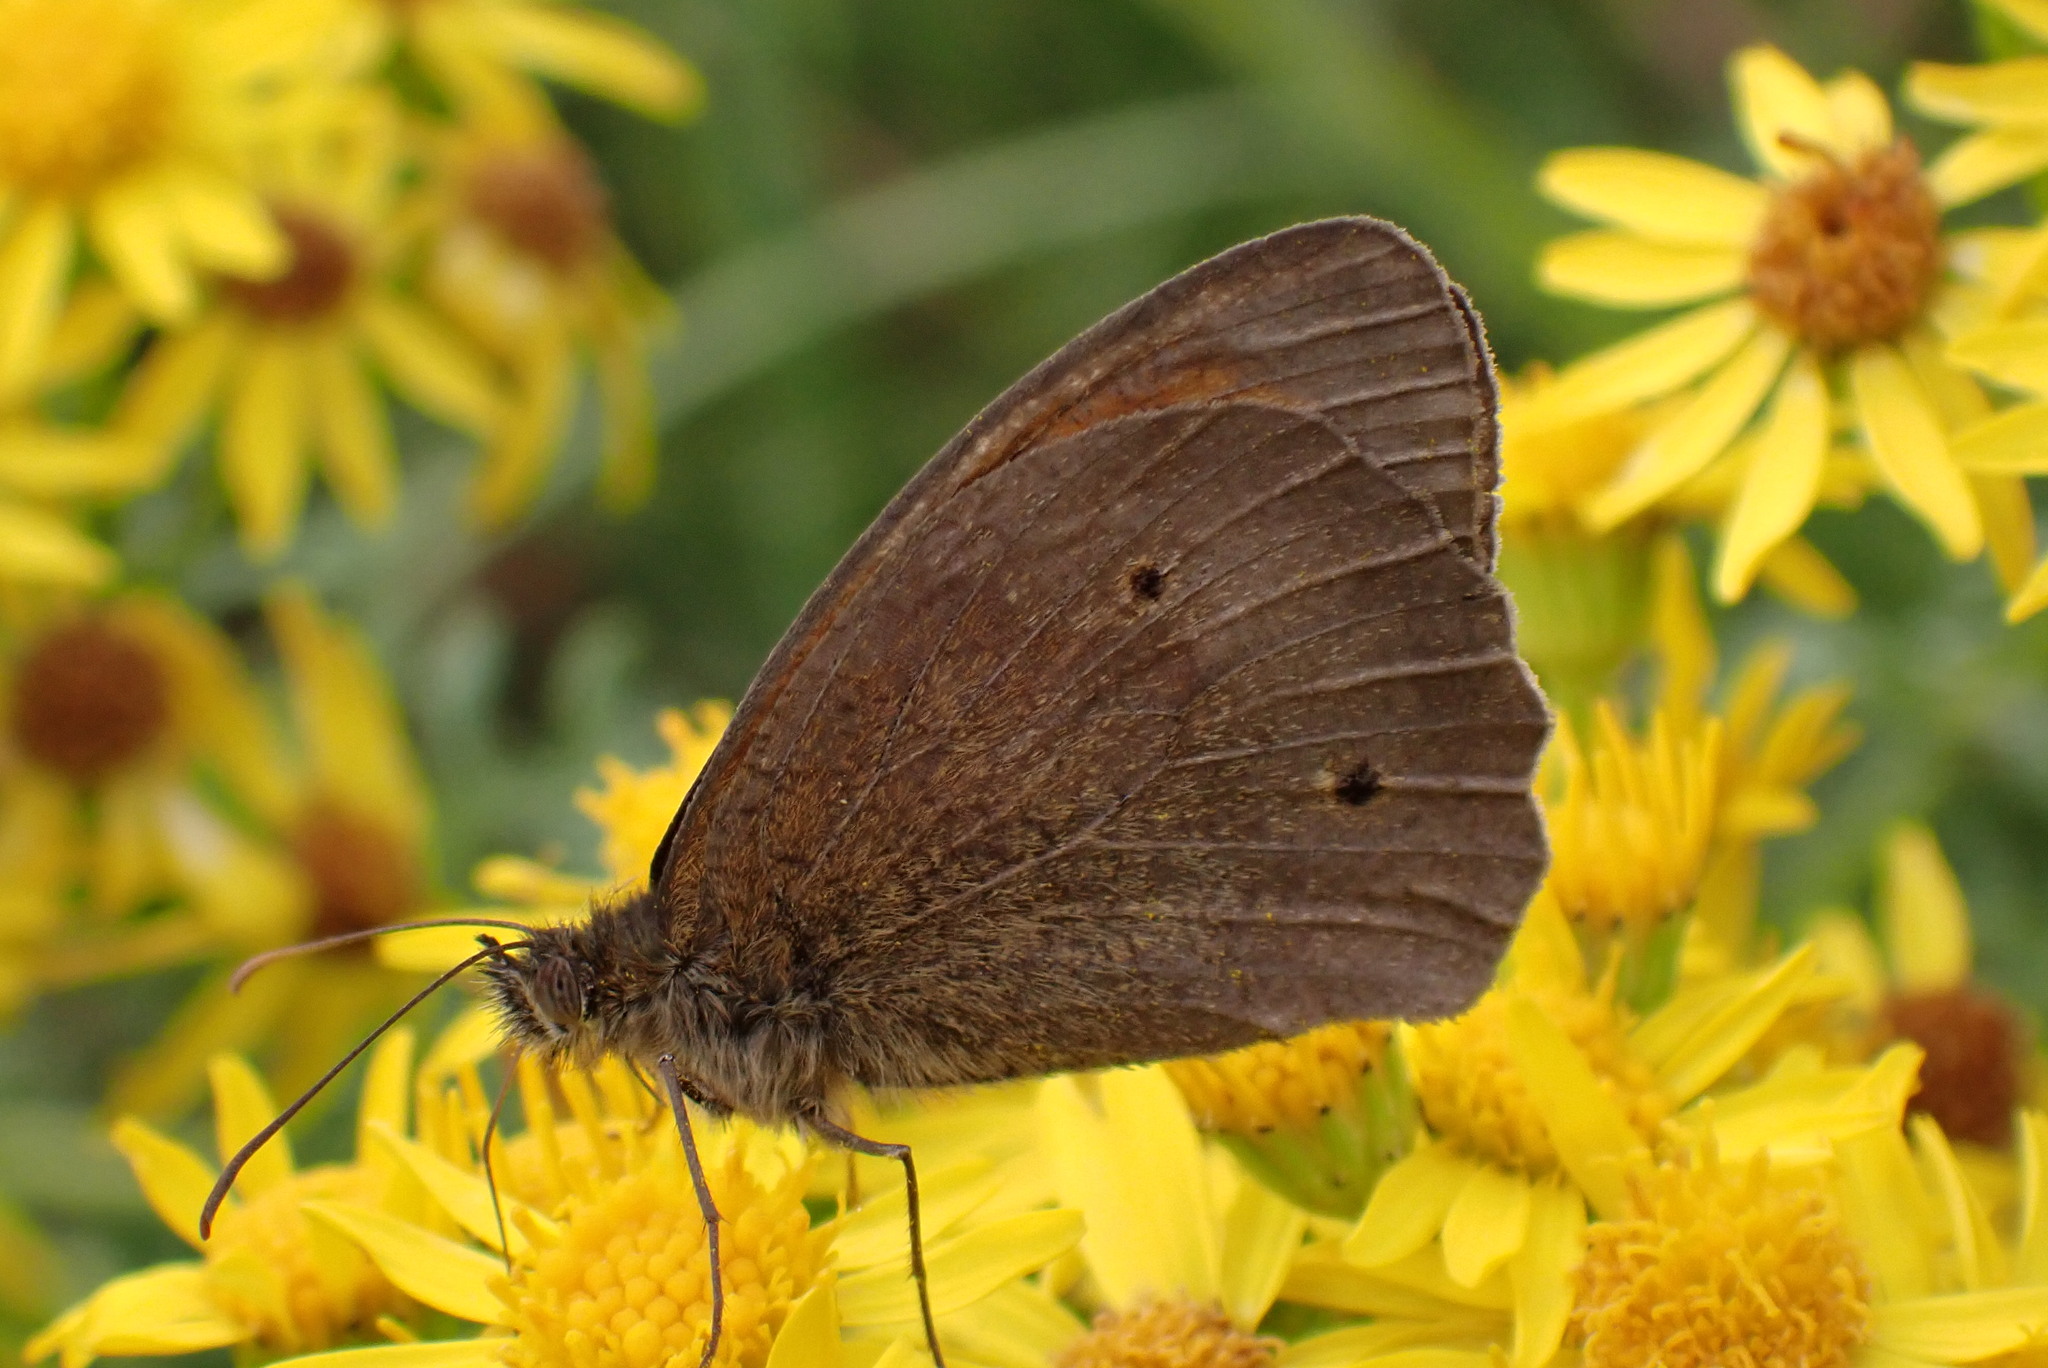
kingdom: Animalia
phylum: Arthropoda
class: Insecta
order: Lepidoptera
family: Nymphalidae
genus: Maniola
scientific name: Maniola jurtina
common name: Meadow brown
